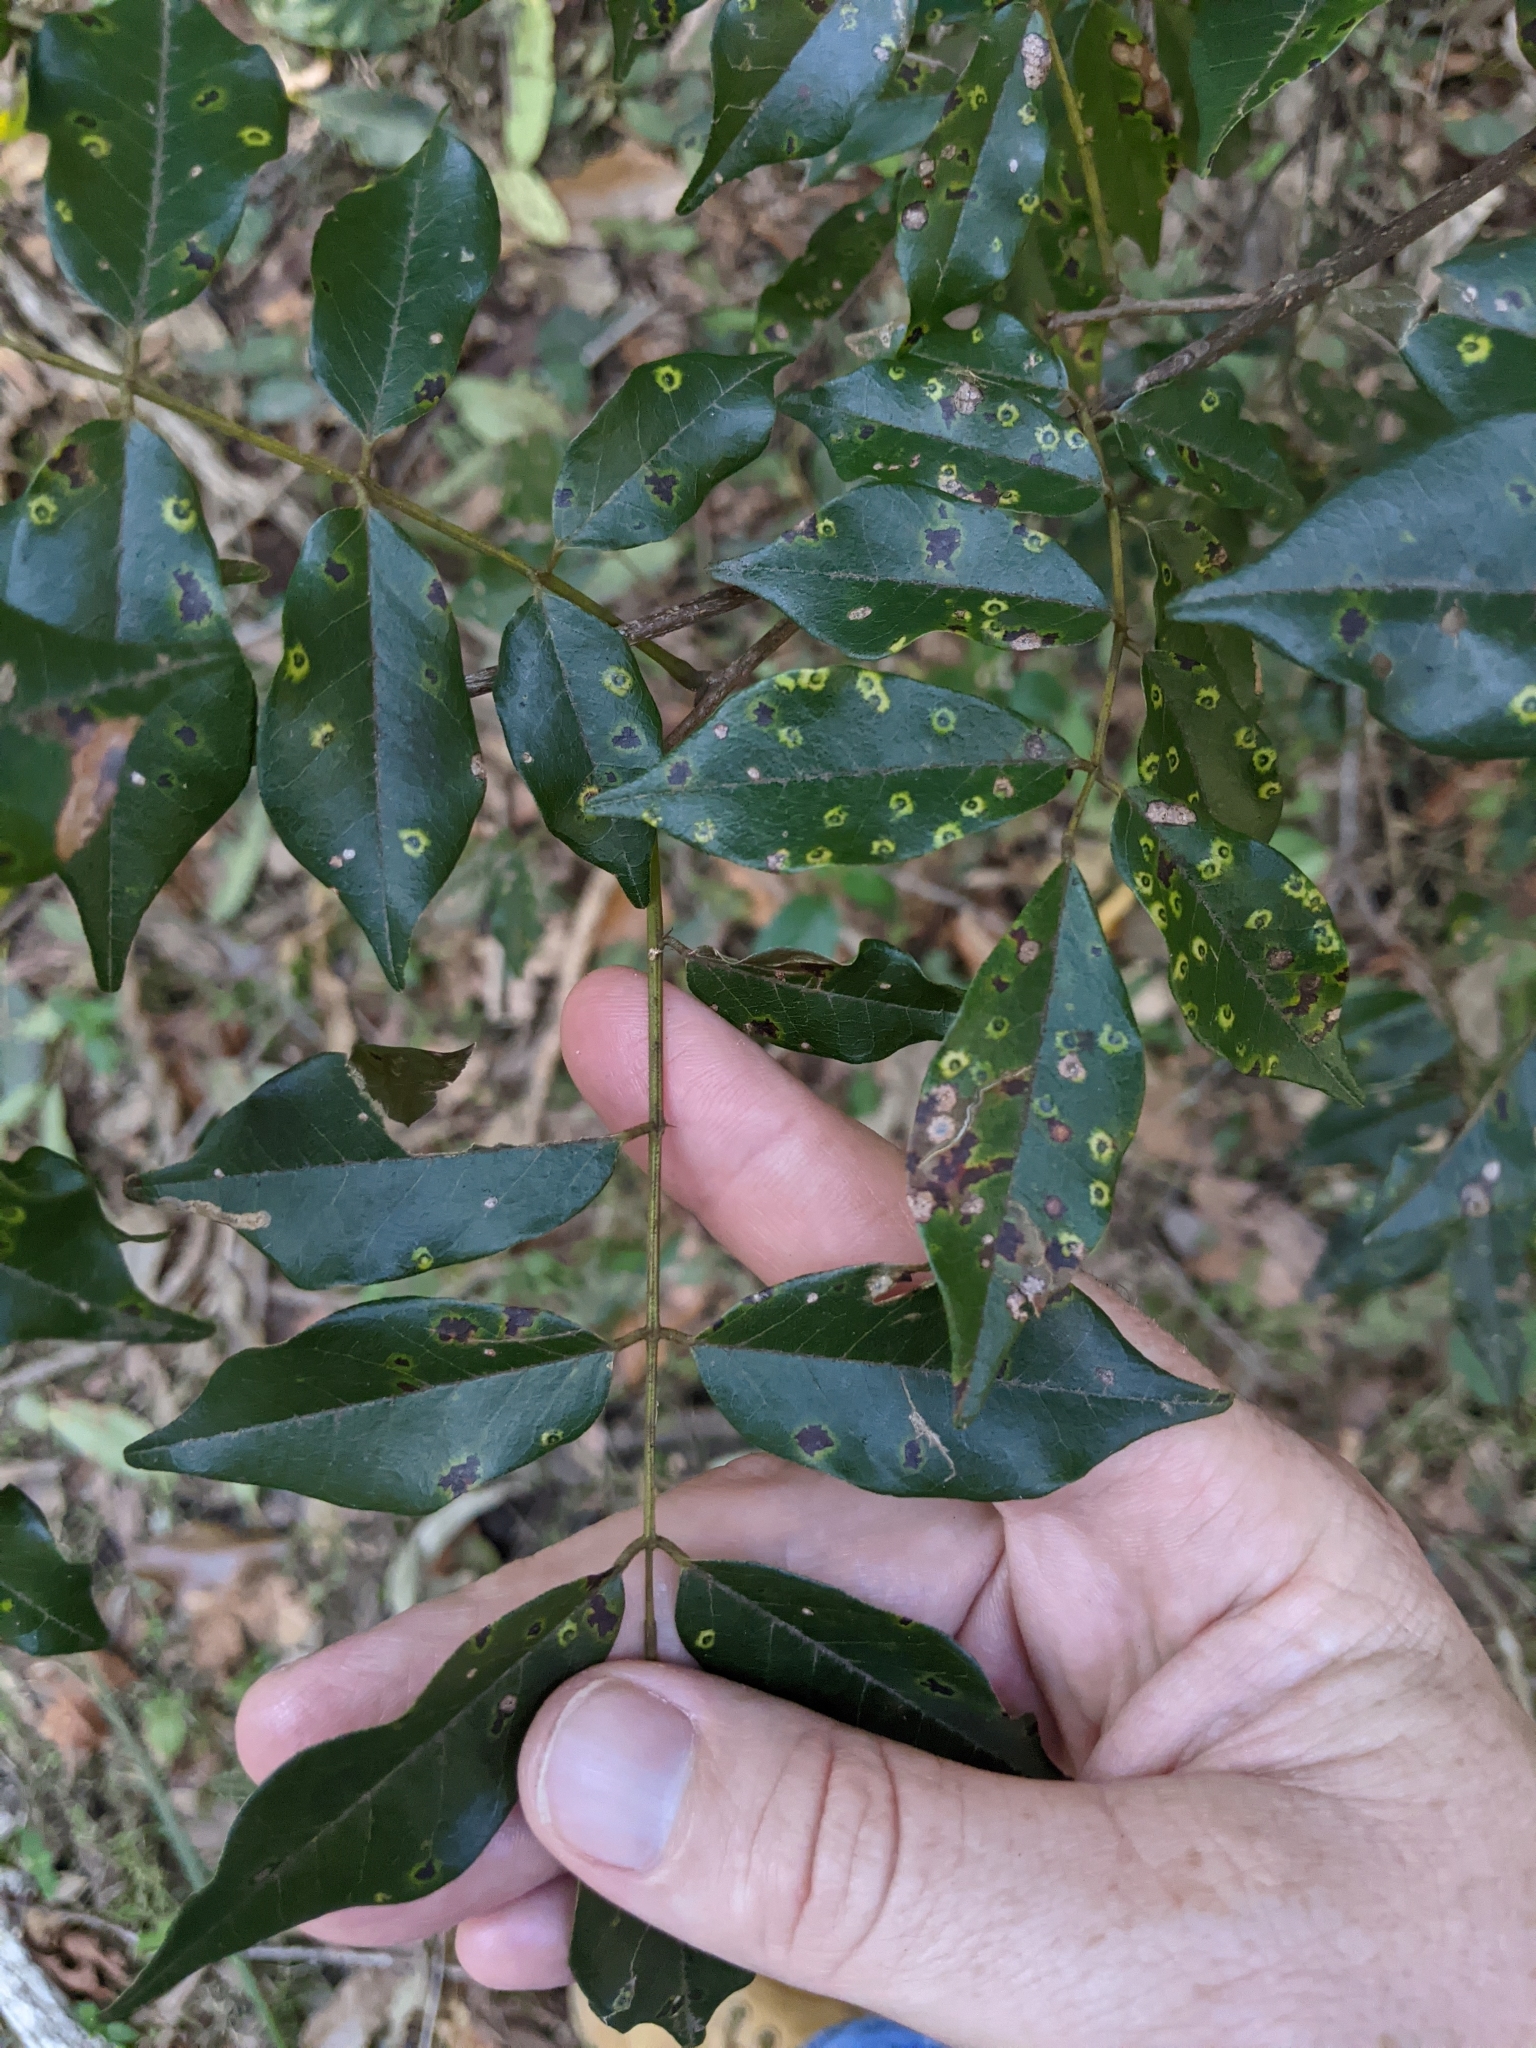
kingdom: Plantae
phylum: Tracheophyta
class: Magnoliopsida
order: Fabales
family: Fabaceae
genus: Austrosteenisia
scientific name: Austrosteenisia blackii
